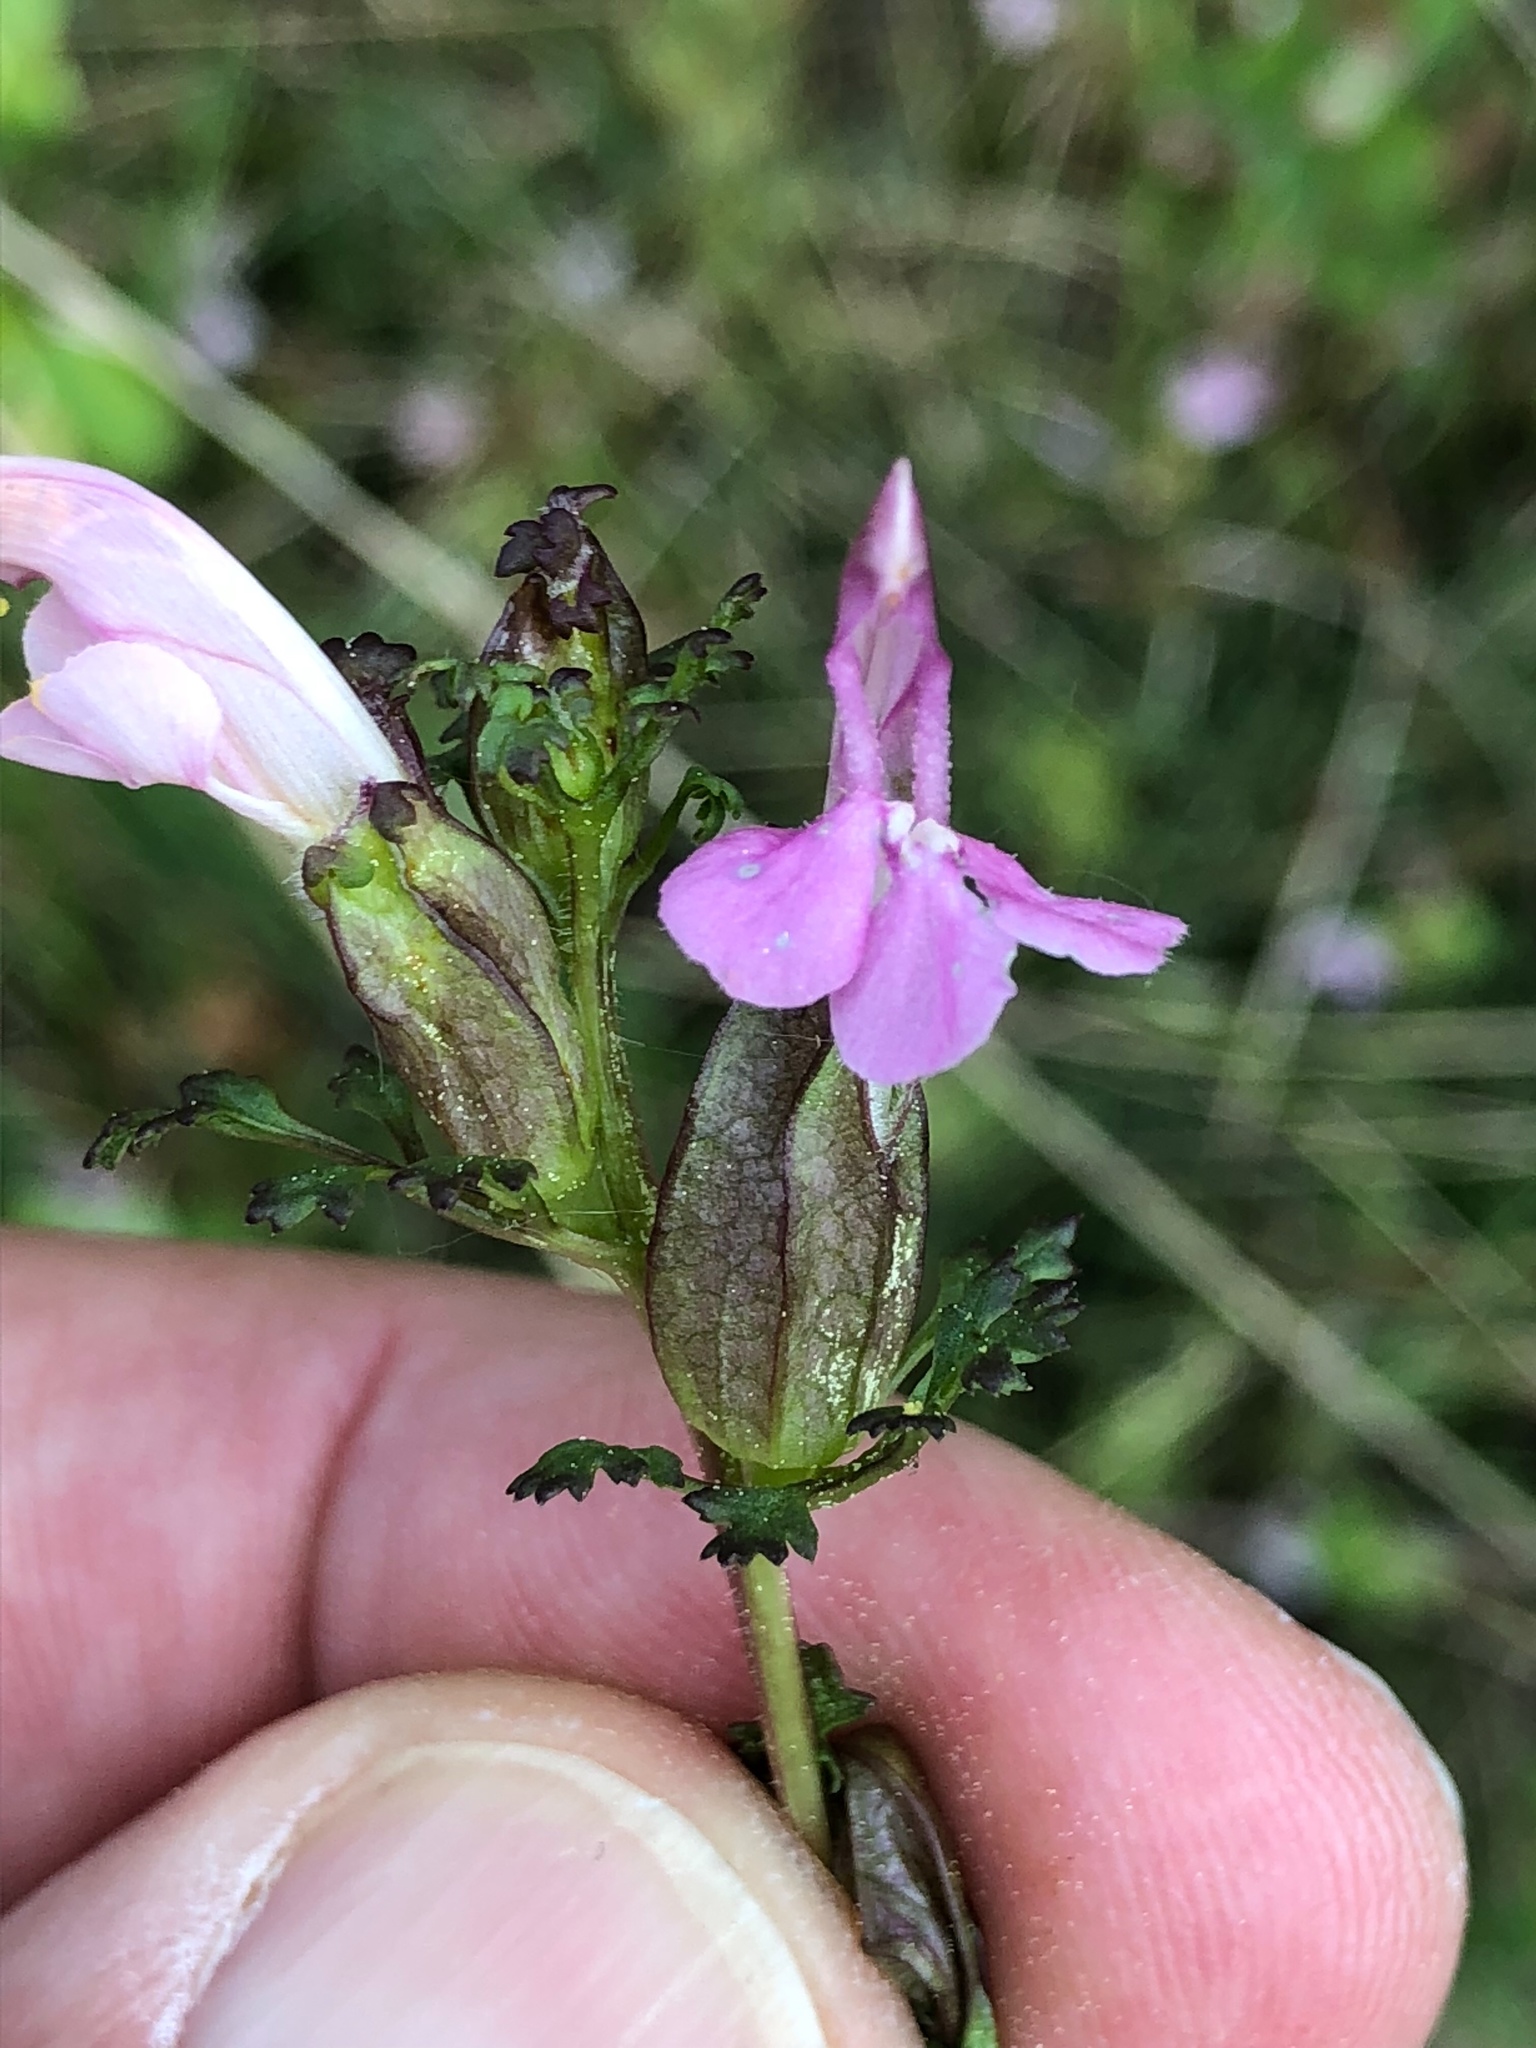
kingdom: Plantae
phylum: Tracheophyta
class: Magnoliopsida
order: Lamiales
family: Orobanchaceae
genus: Pedicularis
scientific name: Pedicularis sylvatica
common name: Lousewort
